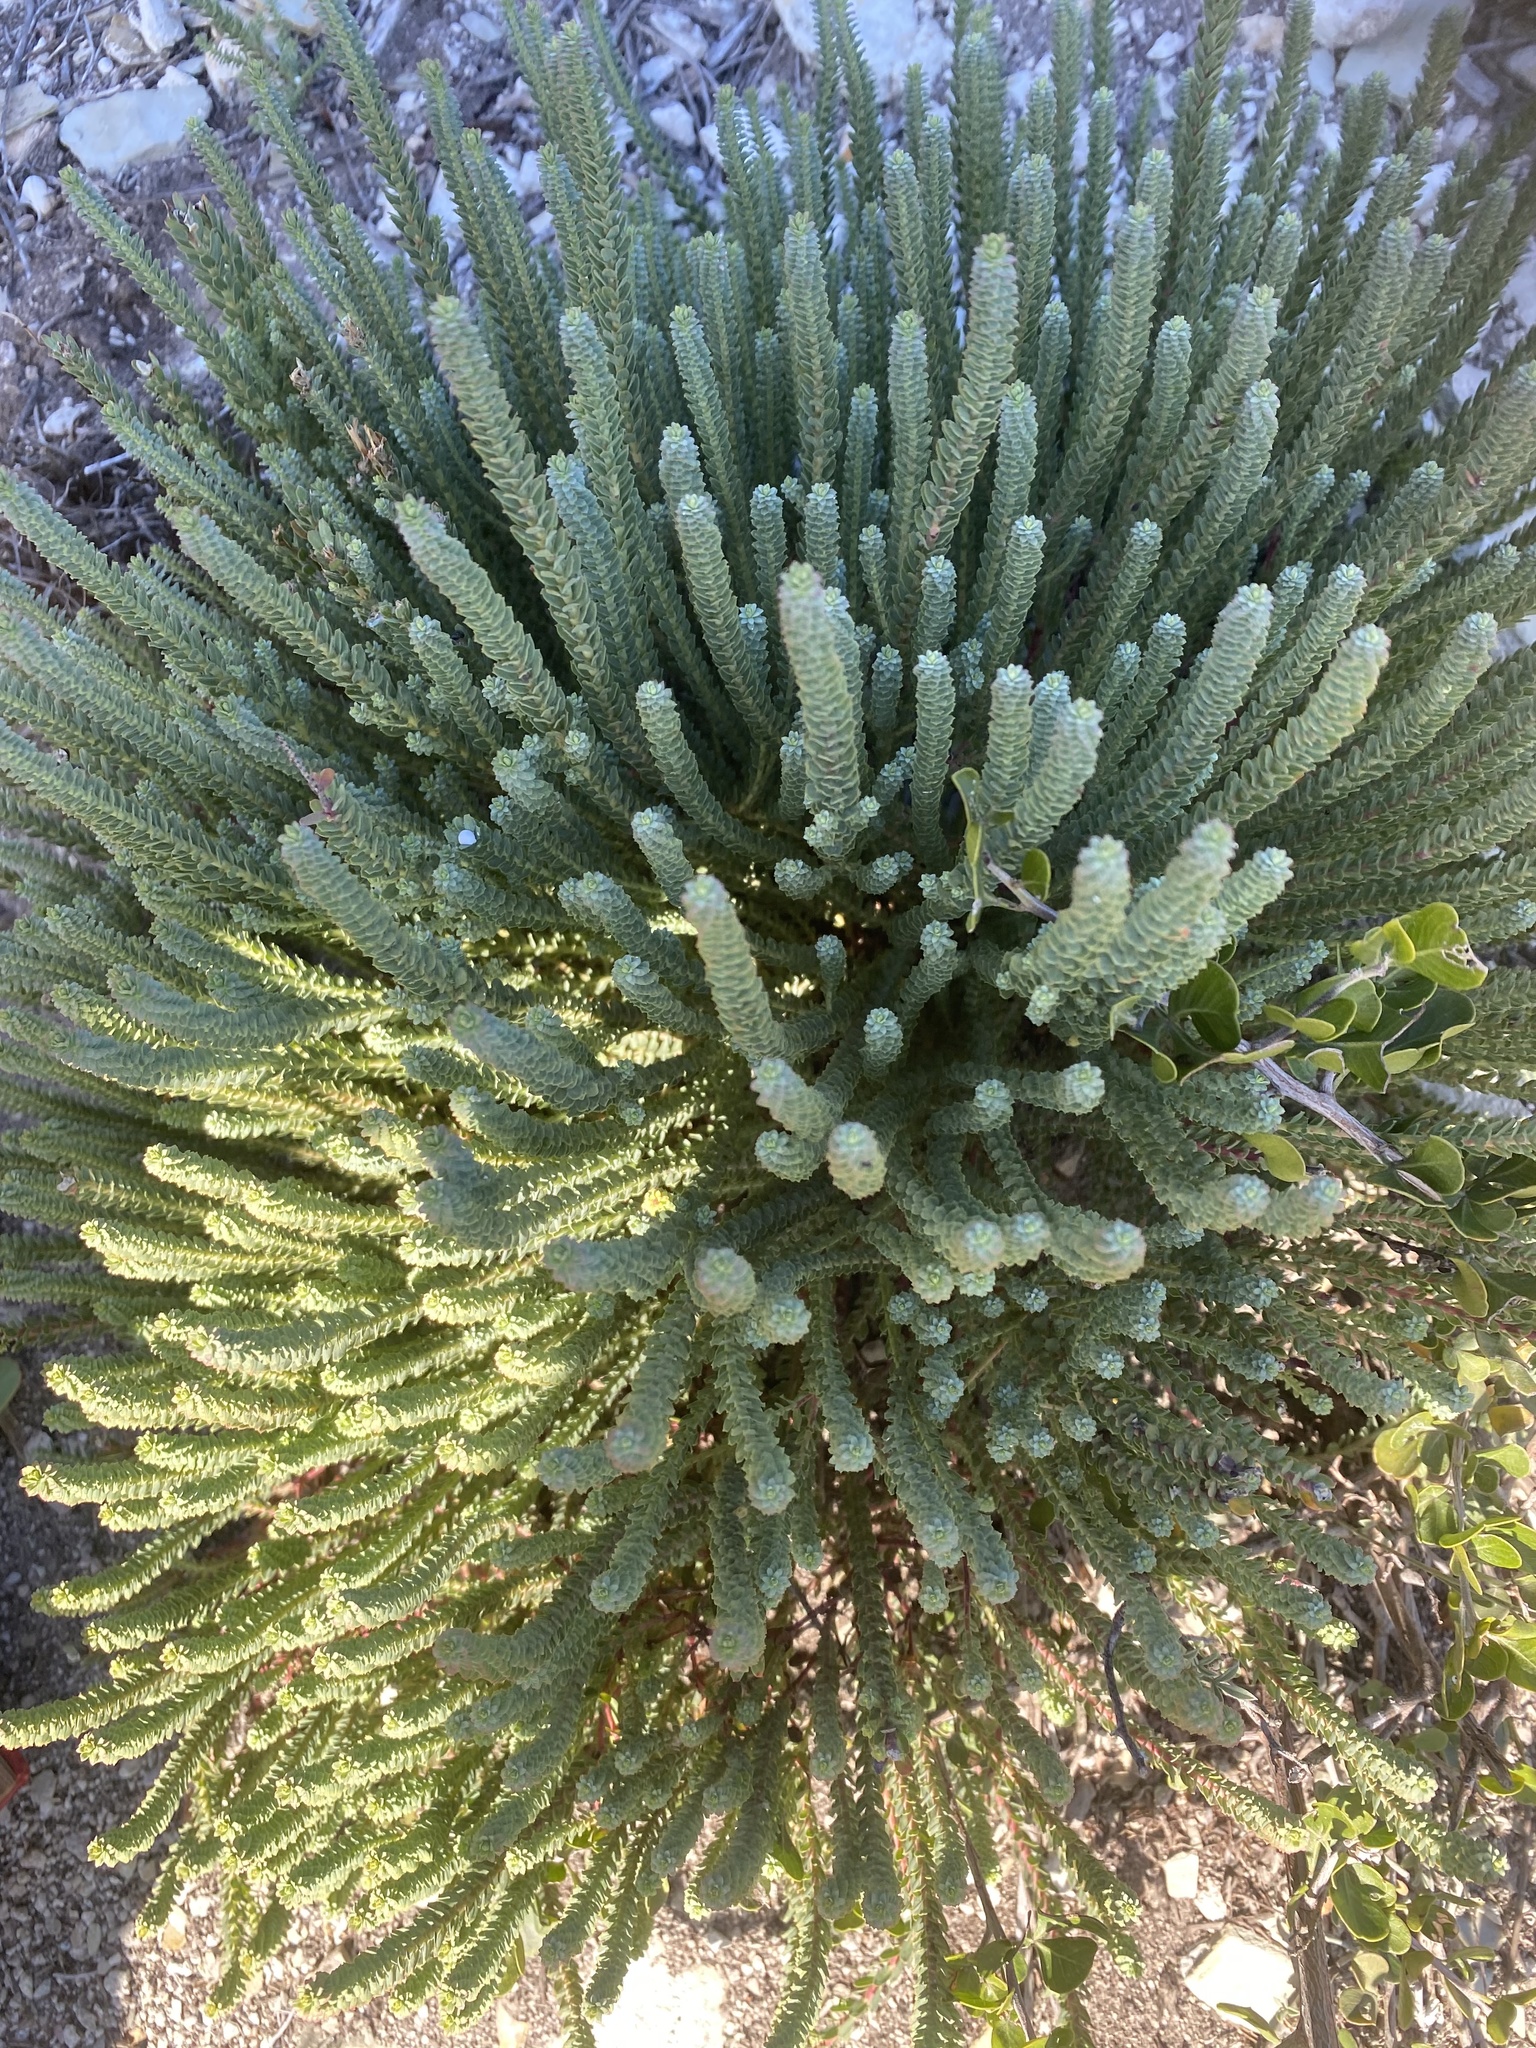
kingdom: Plantae
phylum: Tracheophyta
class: Magnoliopsida
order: Malpighiales
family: Euphorbiaceae
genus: Euphorbia
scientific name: Euphorbia foliosa
